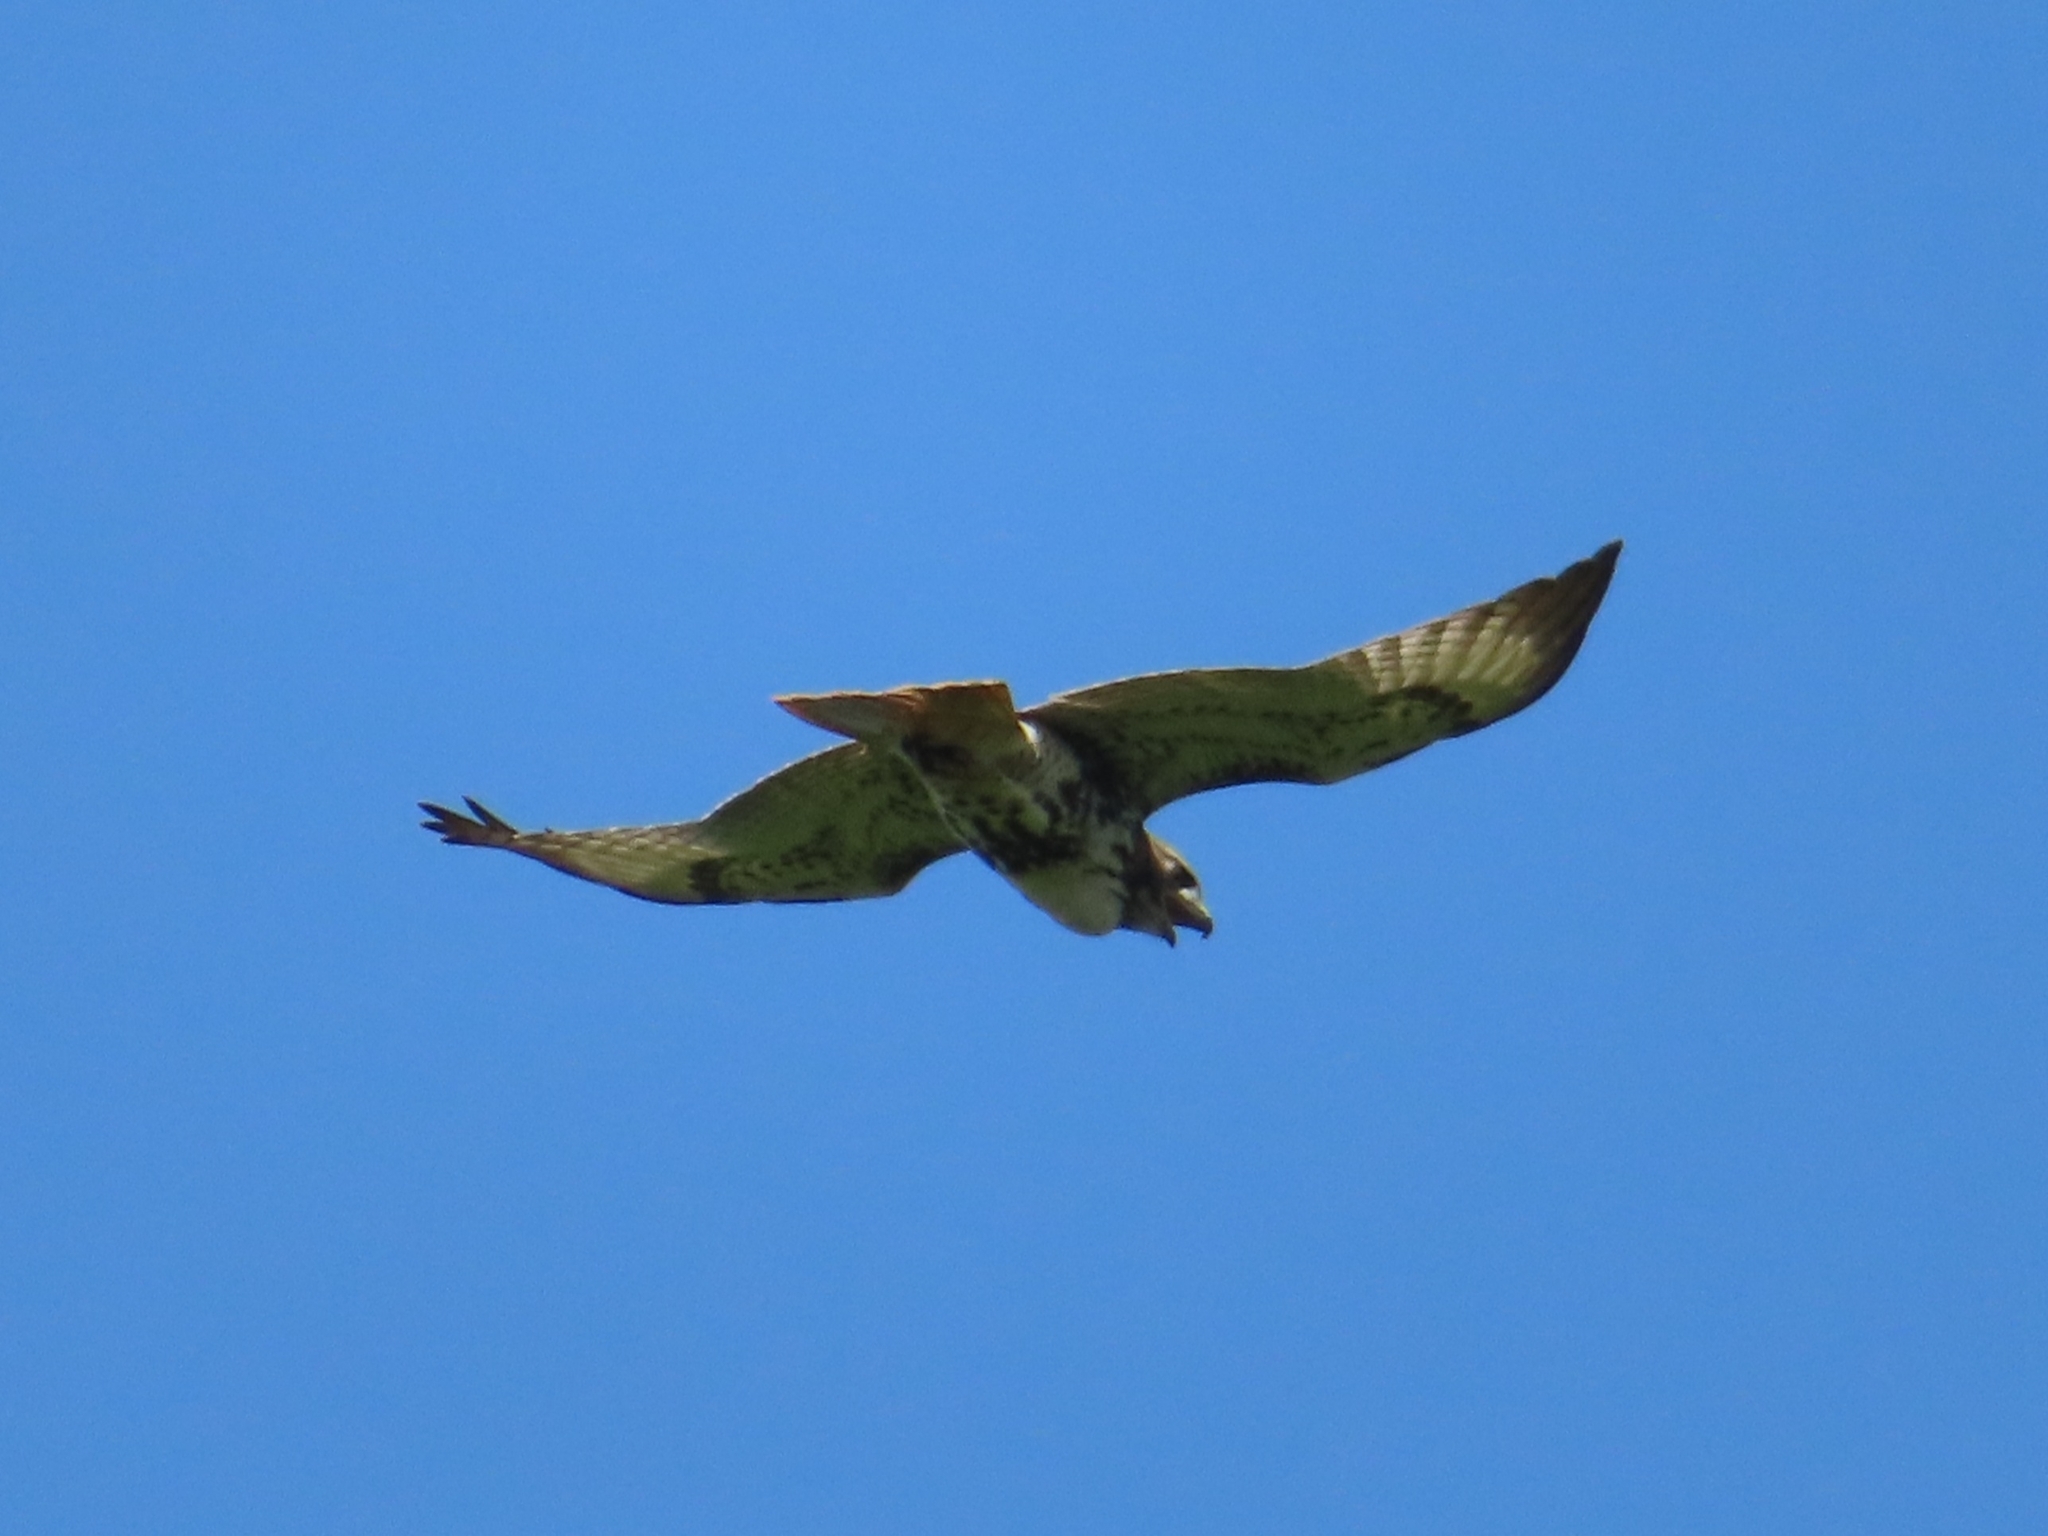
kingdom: Animalia
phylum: Chordata
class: Aves
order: Accipitriformes
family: Accipitridae
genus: Buteo
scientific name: Buteo jamaicensis
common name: Red-tailed hawk
